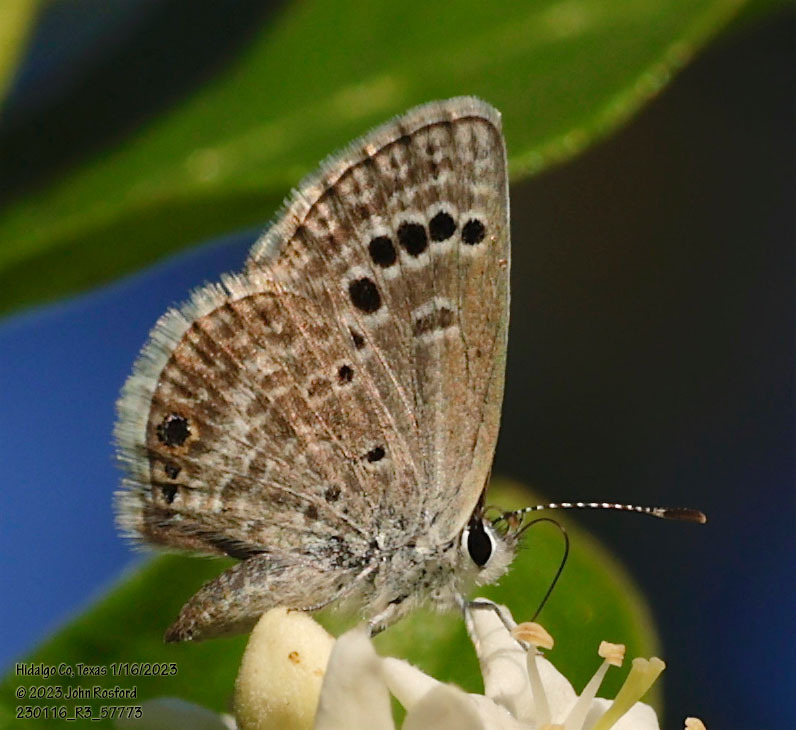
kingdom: Animalia
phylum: Arthropoda
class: Insecta
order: Lepidoptera
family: Lycaenidae
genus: Echinargus
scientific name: Echinargus isola
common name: Reakirt's blue
